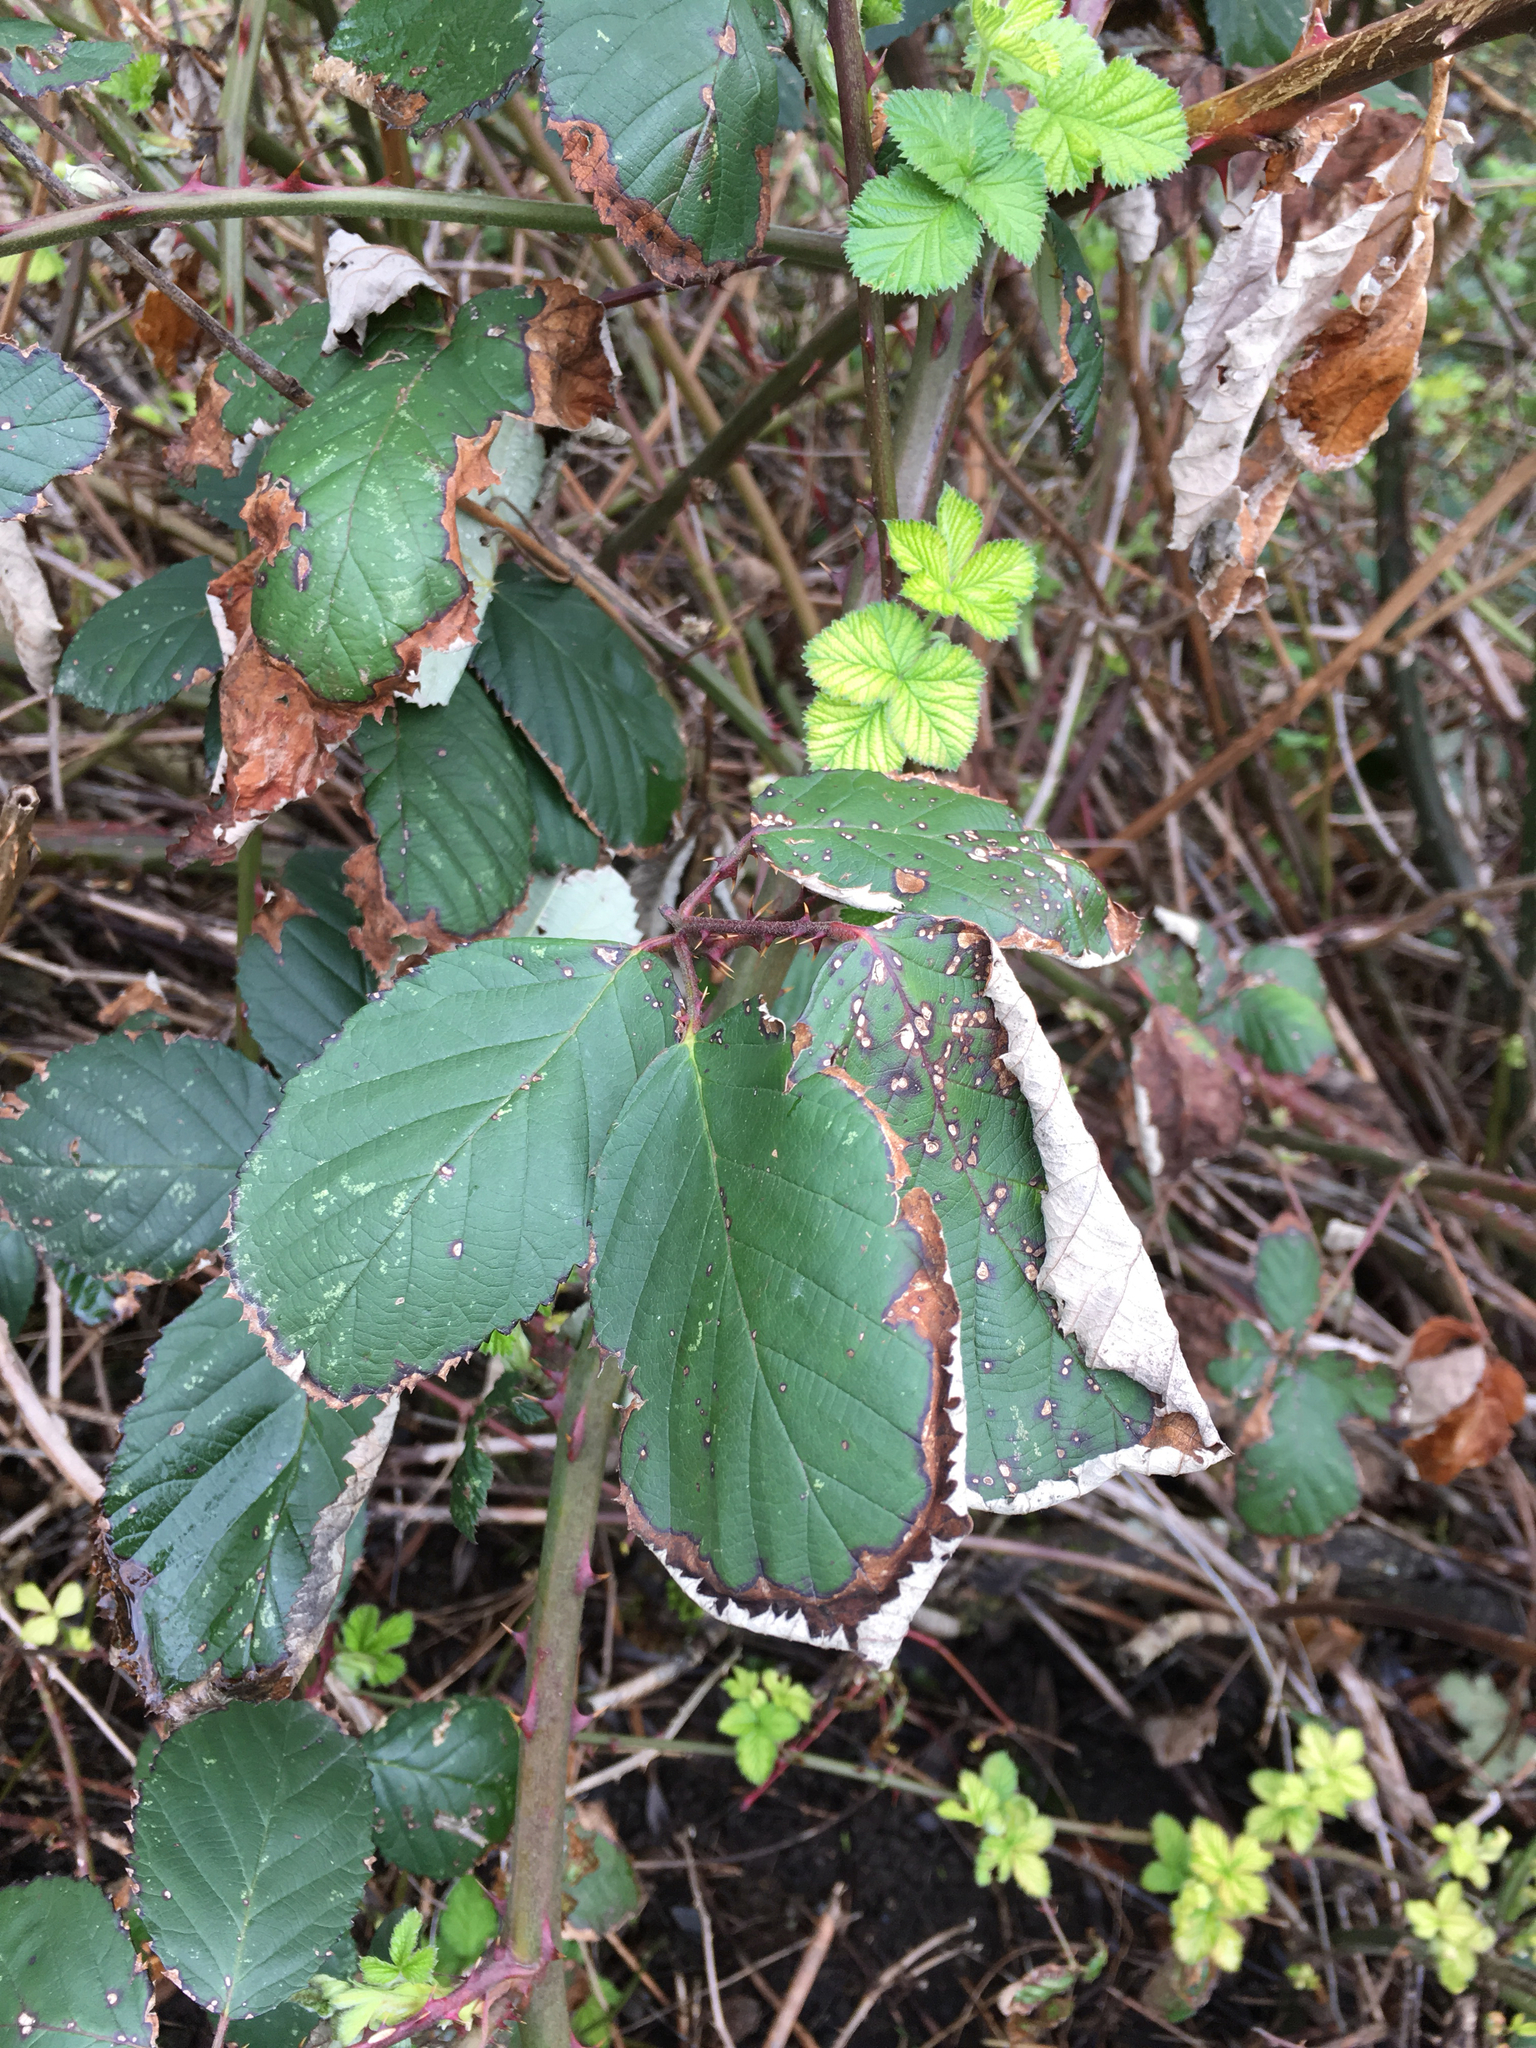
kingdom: Plantae
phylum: Tracheophyta
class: Magnoliopsida
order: Rosales
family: Rosaceae
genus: Rubus
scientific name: Rubus armeniacus
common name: Himalayan blackberry
